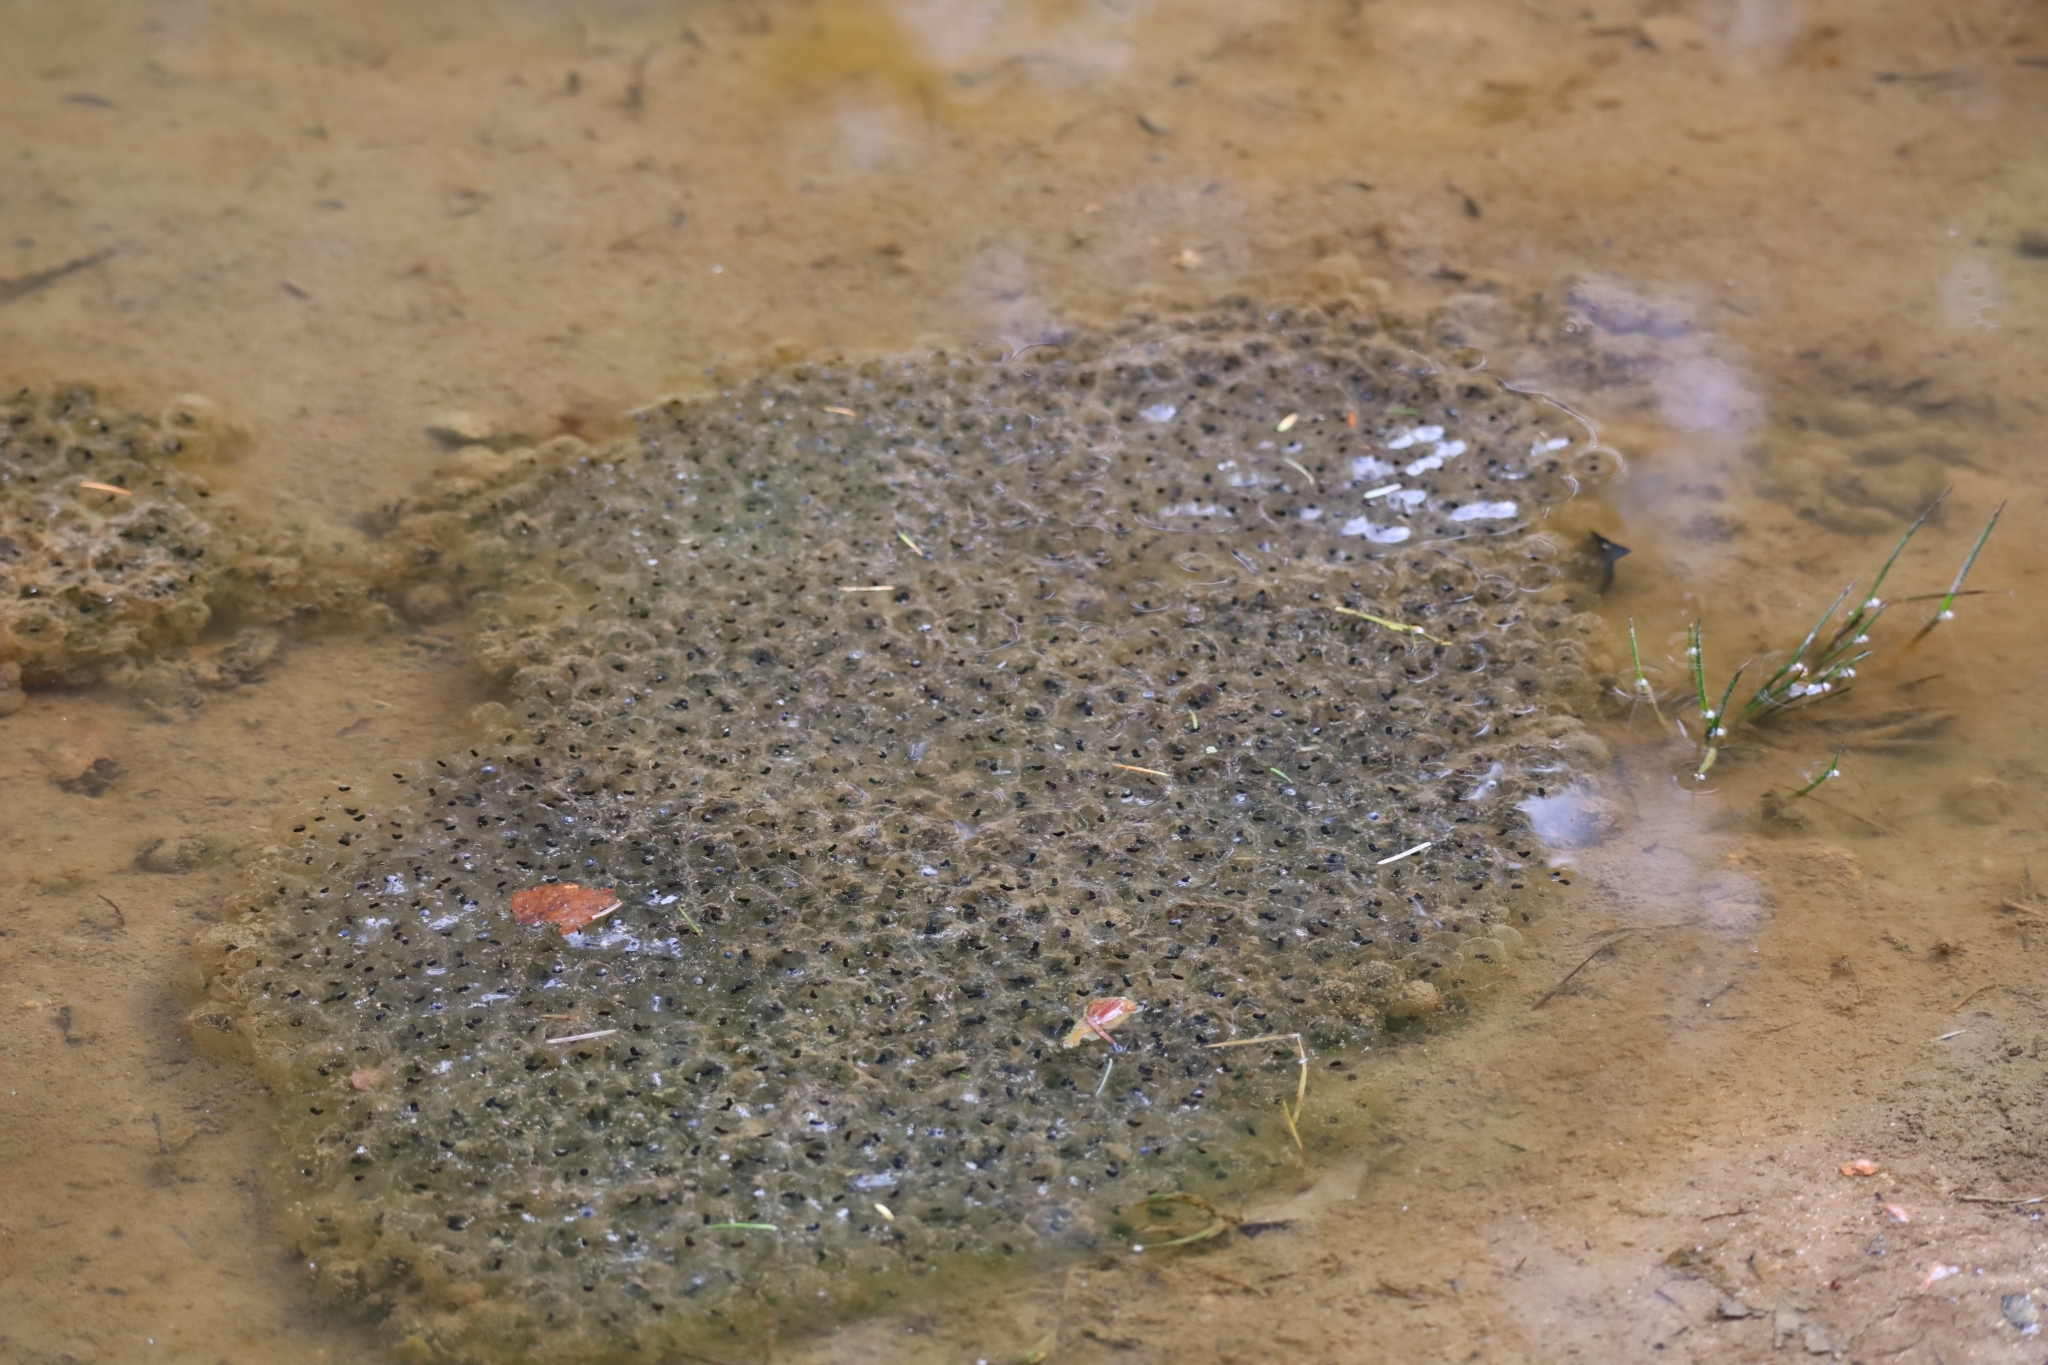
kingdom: Animalia
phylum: Chordata
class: Amphibia
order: Anura
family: Ranidae
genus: Rana
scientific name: Rana temporaria
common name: Common frog
